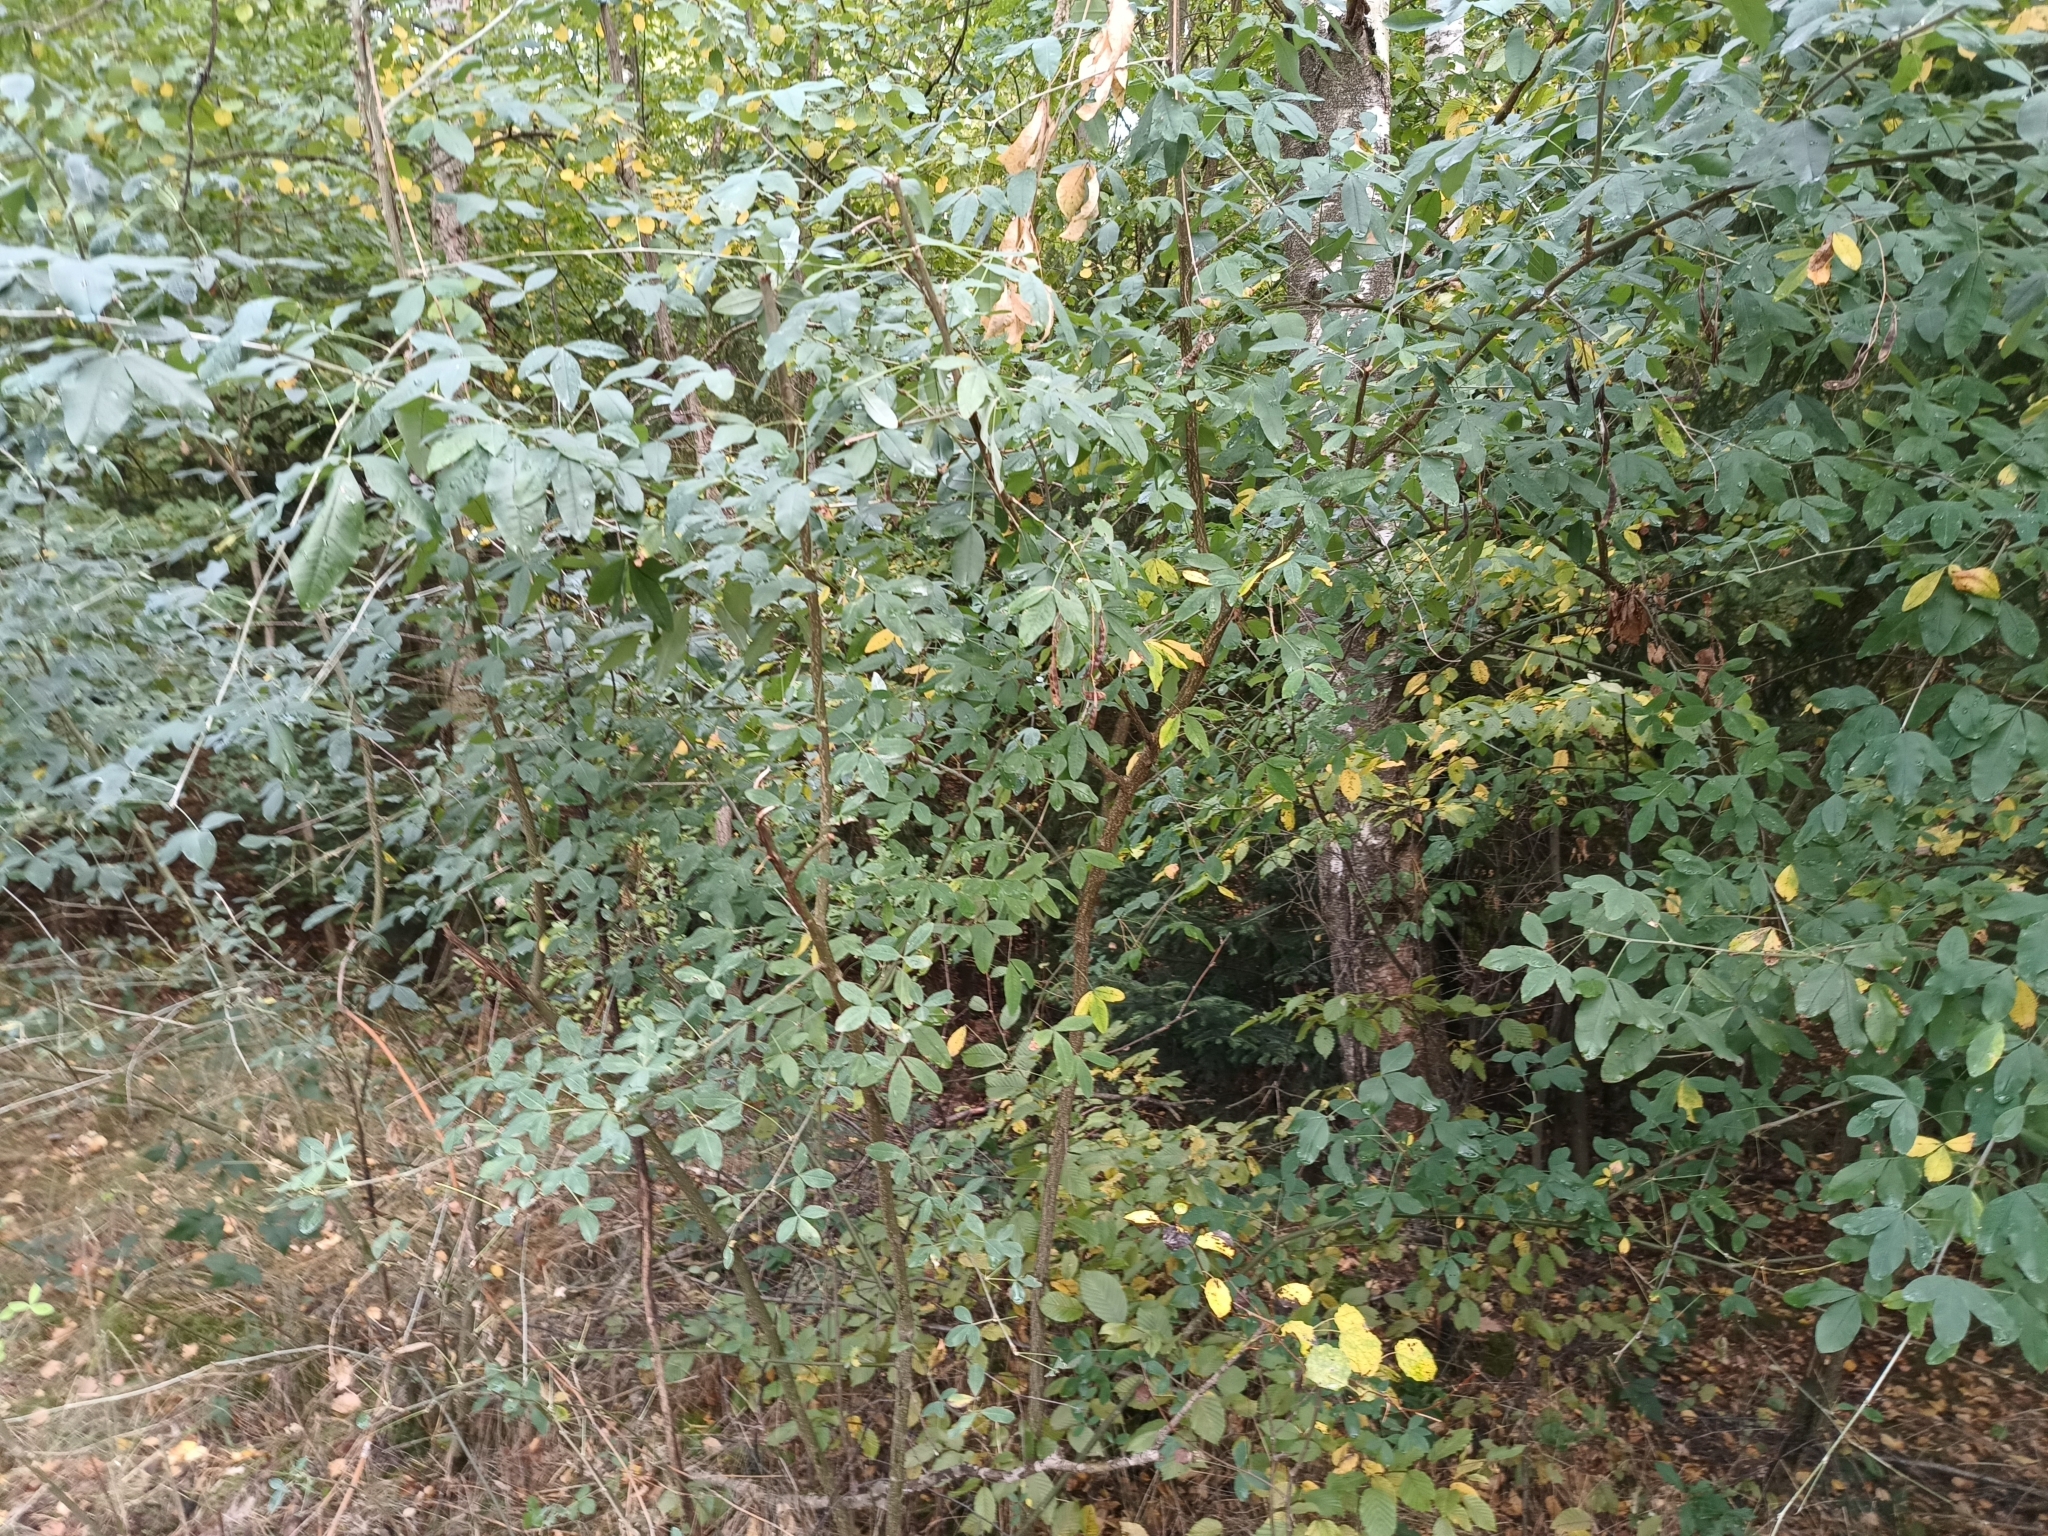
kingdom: Plantae
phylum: Tracheophyta
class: Magnoliopsida
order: Fabales
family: Fabaceae
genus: Laburnum
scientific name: Laburnum anagyroides
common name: Laburnum
